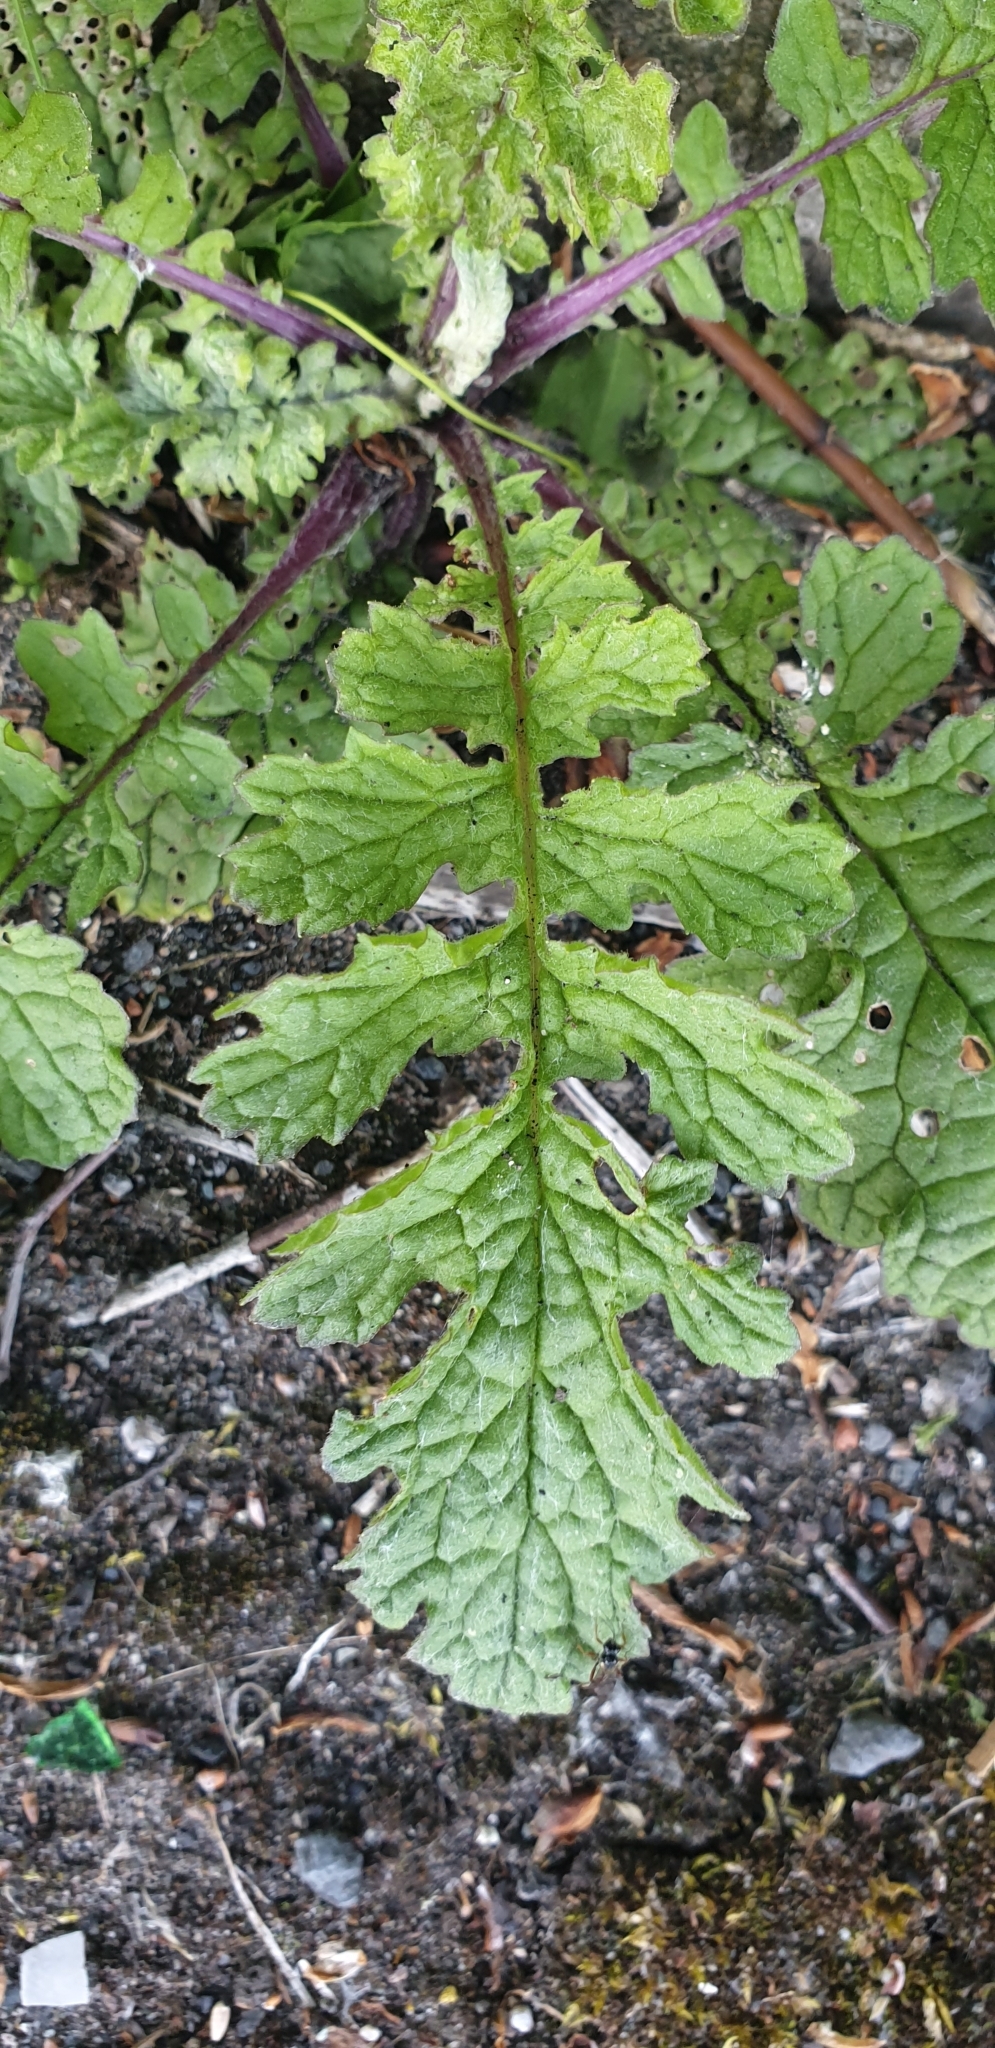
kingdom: Plantae
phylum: Tracheophyta
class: Magnoliopsida
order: Asterales
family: Asteraceae
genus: Jacobaea
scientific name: Jacobaea vulgaris
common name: Stinking willie
